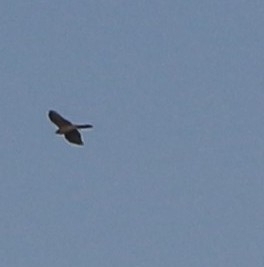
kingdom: Animalia
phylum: Chordata
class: Aves
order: Accipitriformes
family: Accipitridae
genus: Accipiter
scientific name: Accipiter nisus
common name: Eurasian sparrowhawk
